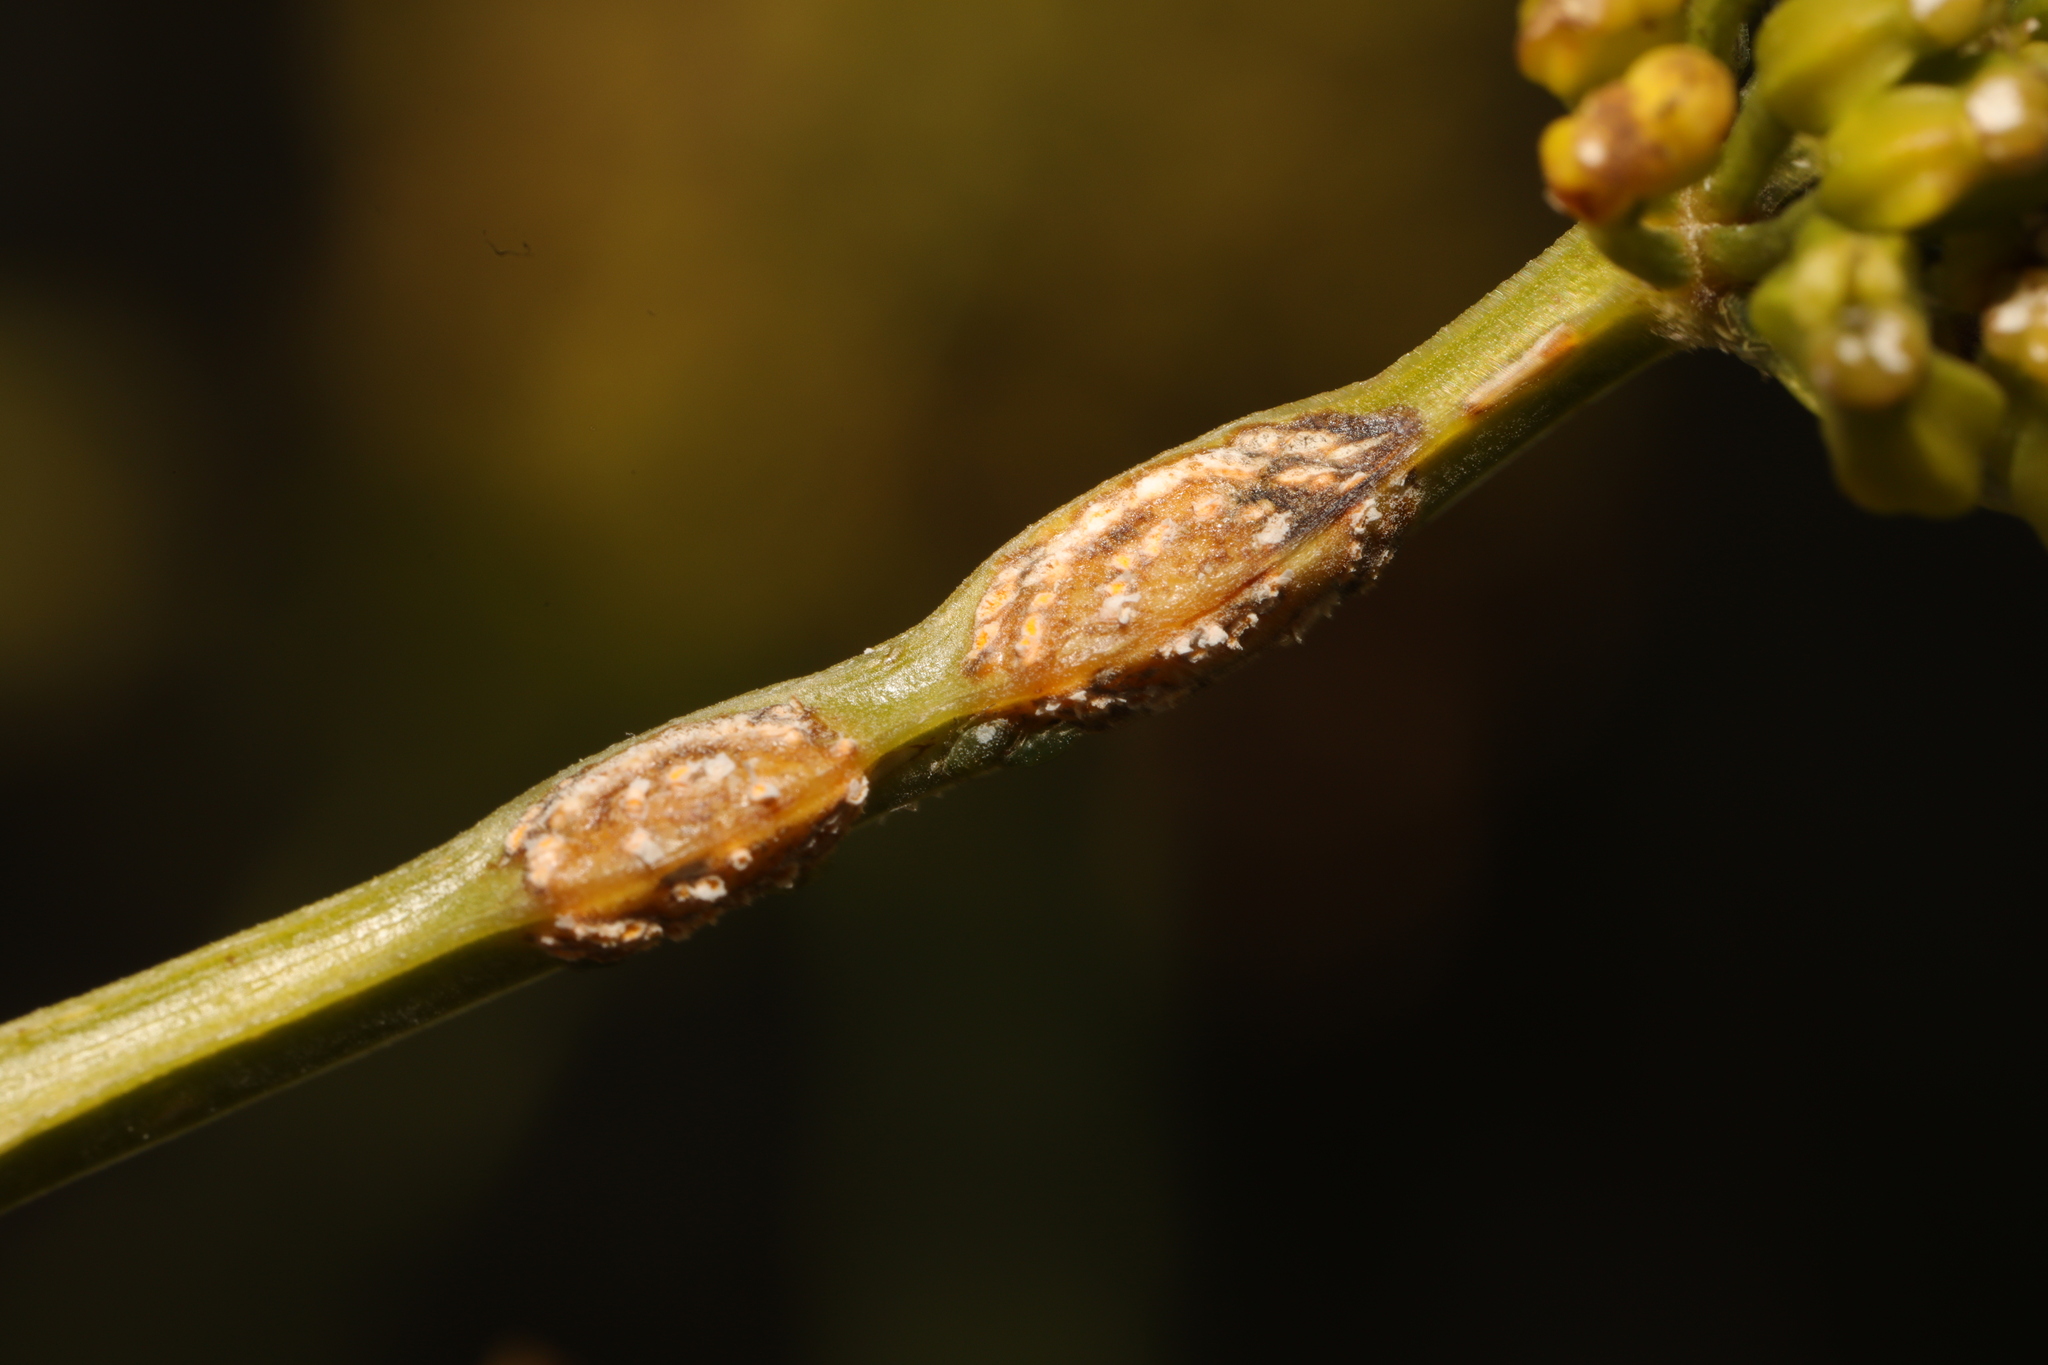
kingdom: Fungi
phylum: Basidiomycota
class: Pucciniomycetes
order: Pucciniales
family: Pucciniaceae
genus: Puccinia
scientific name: Puccinia smyrnii
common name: Alexanders rust
